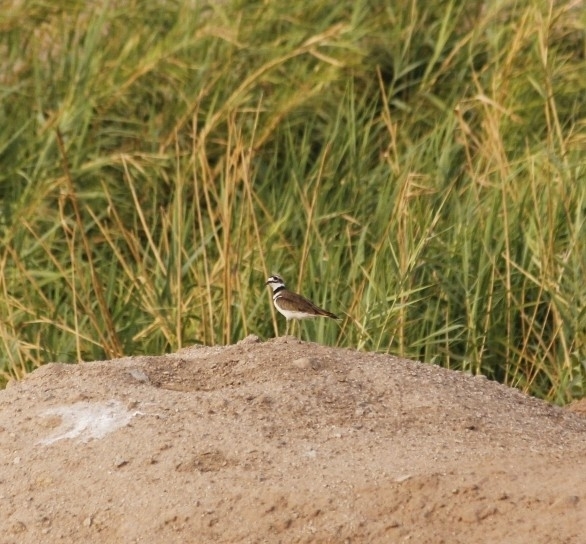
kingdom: Animalia
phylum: Chordata
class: Aves
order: Charadriiformes
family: Charadriidae
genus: Charadrius
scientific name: Charadrius vociferus
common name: Killdeer
